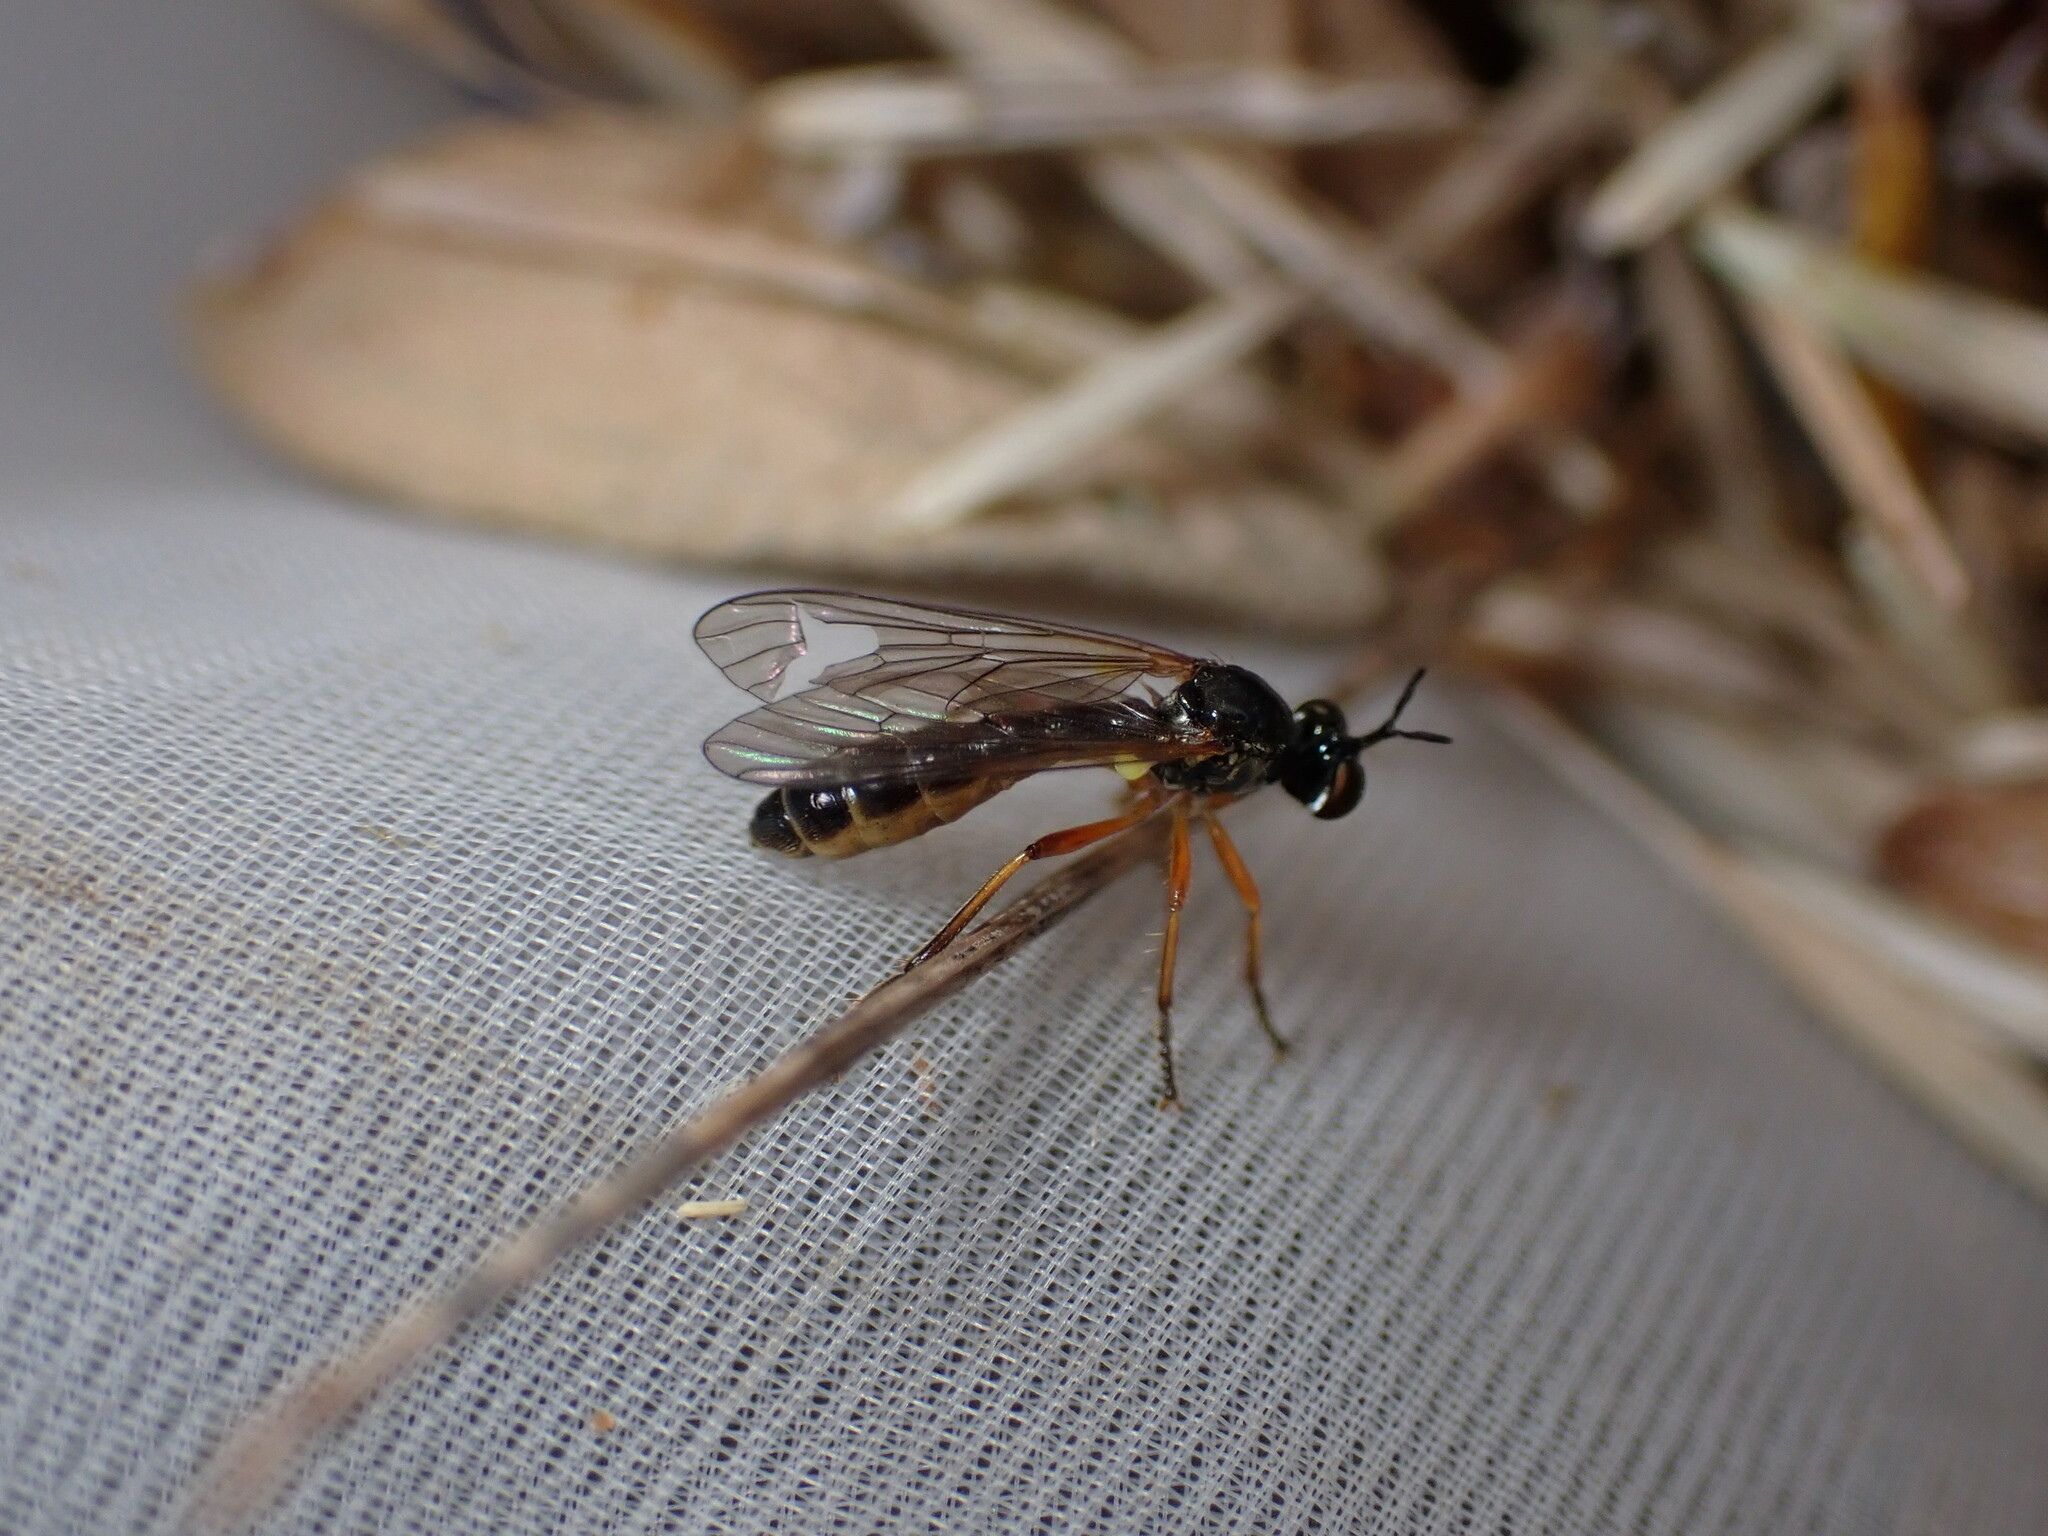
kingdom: Animalia
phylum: Arthropoda
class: Insecta
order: Diptera
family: Asilidae
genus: Dioctria
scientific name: Dioctria bicincta
